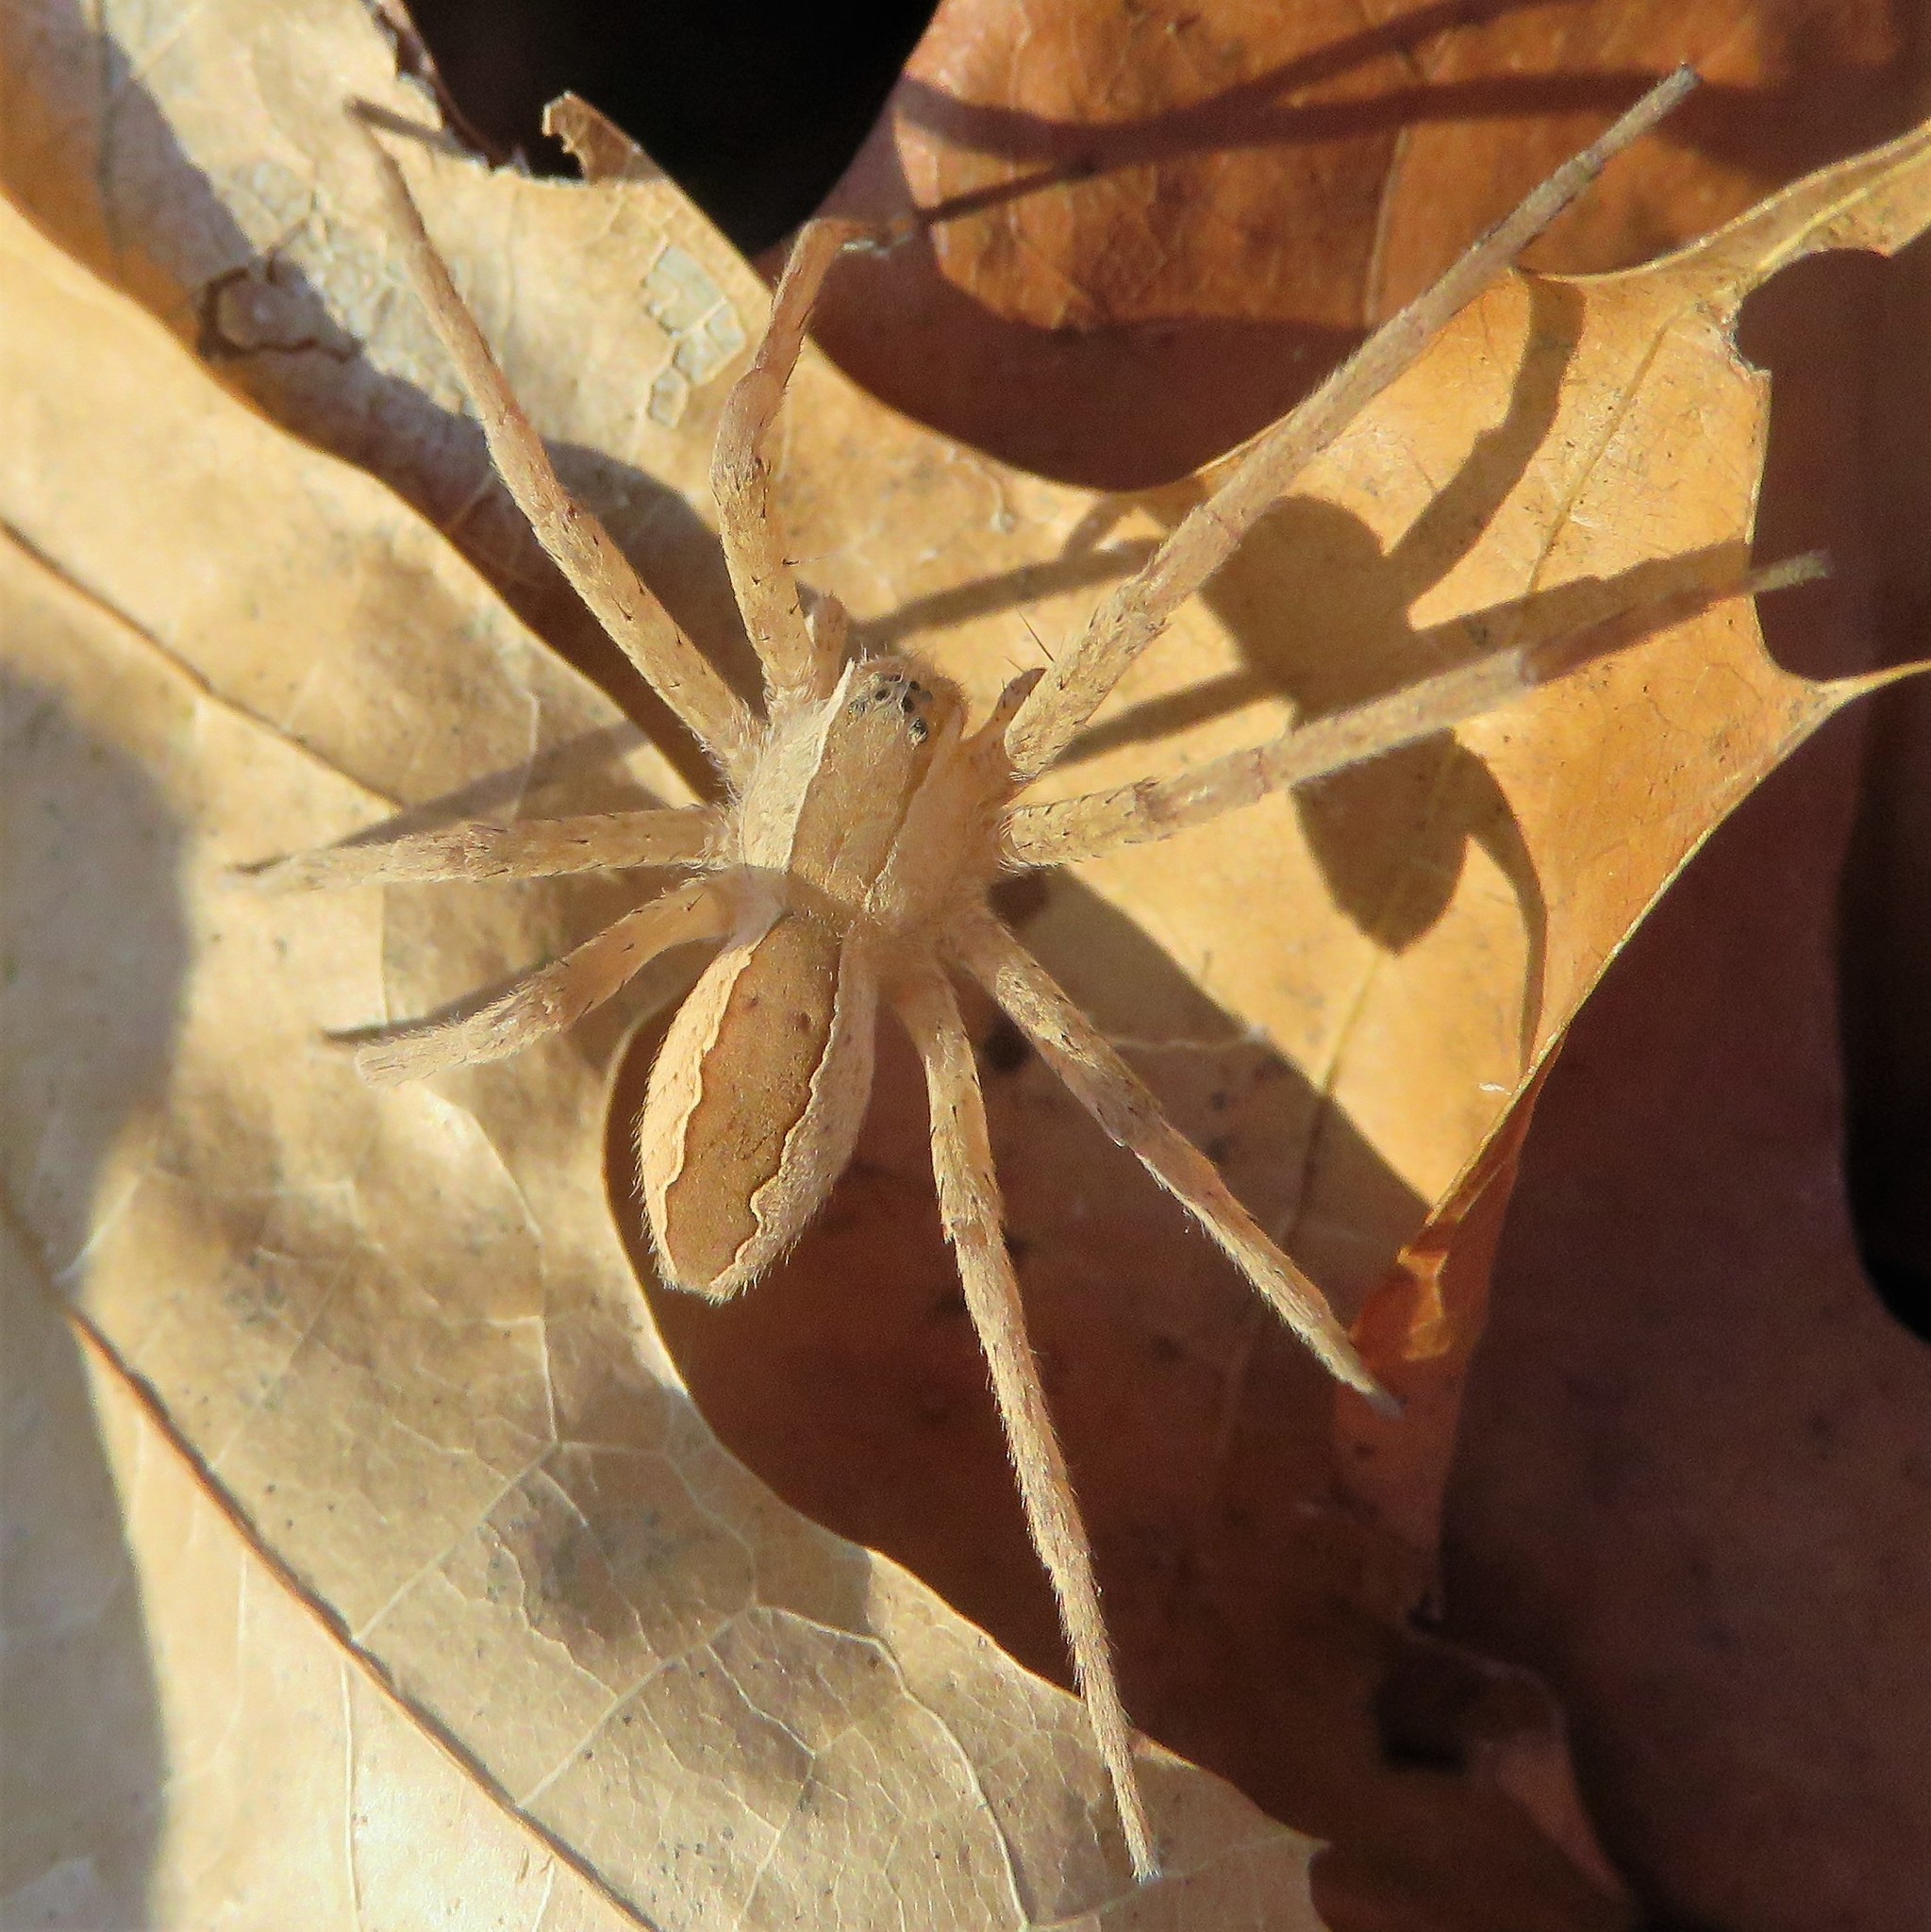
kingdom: Animalia
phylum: Arthropoda
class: Arachnida
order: Araneae
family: Pisauridae
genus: Pisaurina
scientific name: Pisaurina mira
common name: American nursery web spider
